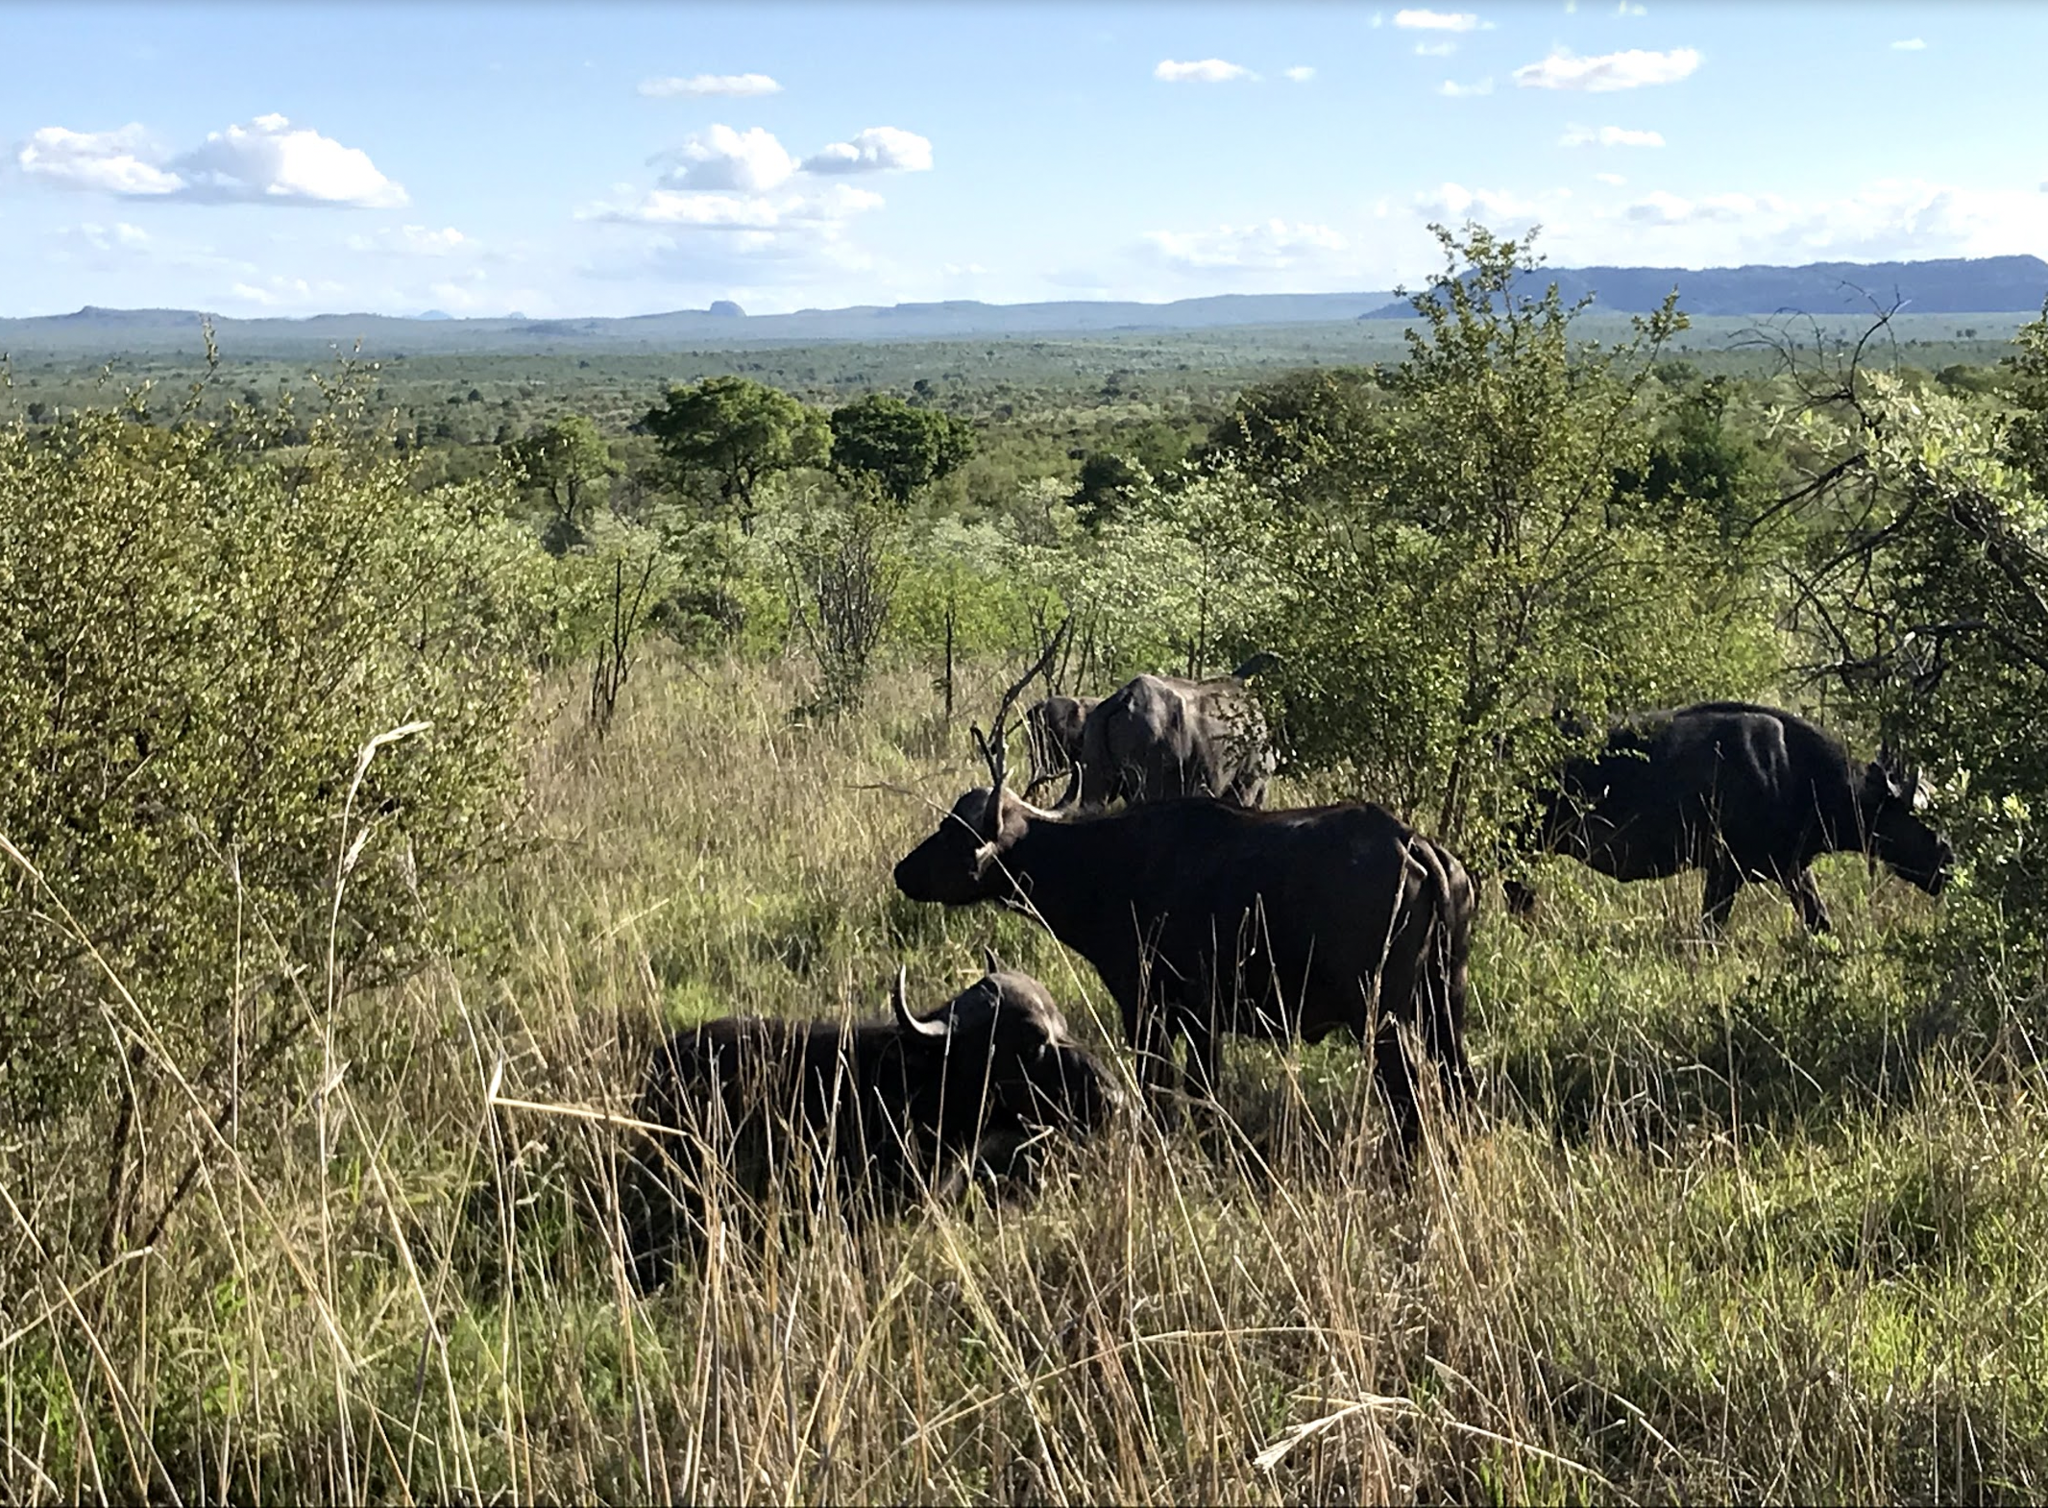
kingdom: Animalia
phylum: Chordata
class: Mammalia
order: Artiodactyla
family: Bovidae
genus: Syncerus
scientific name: Syncerus caffer
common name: African buffalo
